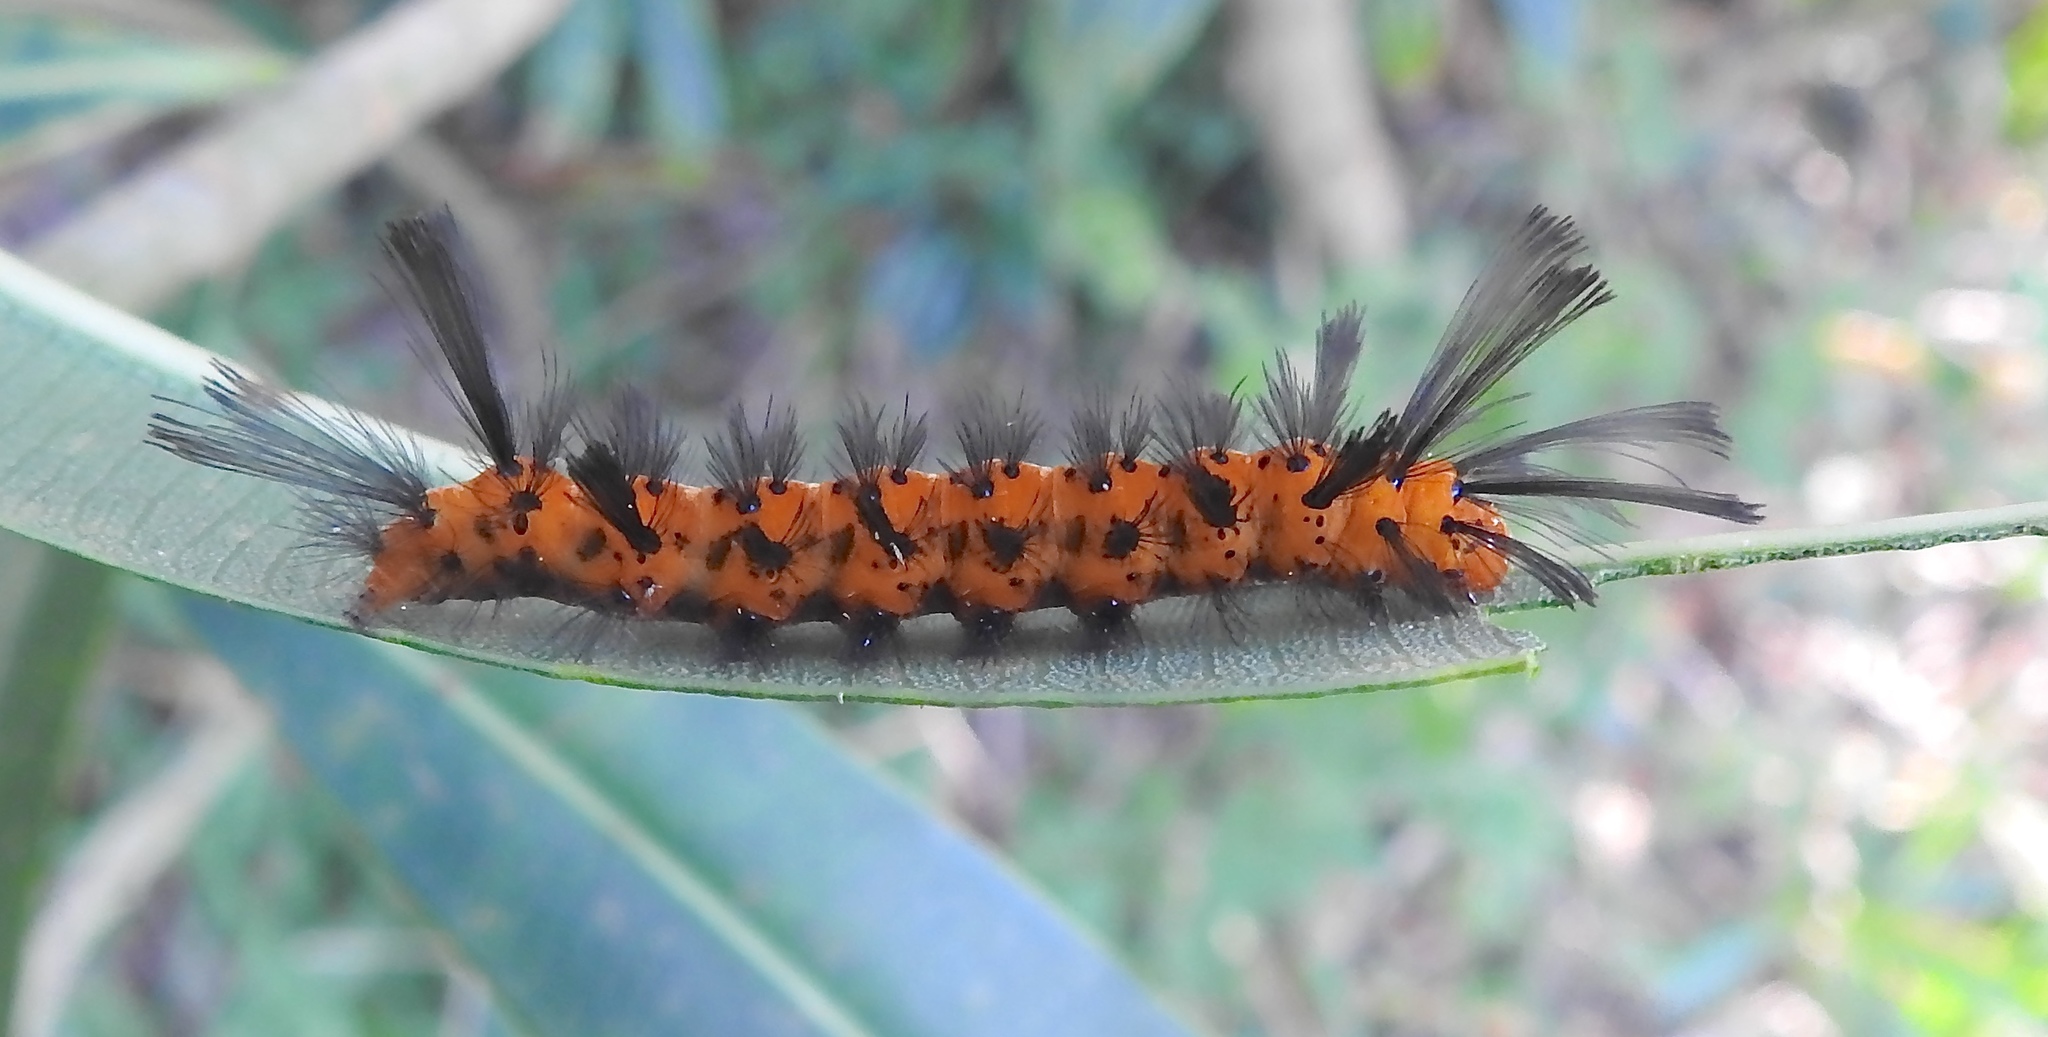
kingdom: Animalia
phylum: Arthropoda
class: Insecta
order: Lepidoptera
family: Erebidae
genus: Syntomeida
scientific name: Syntomeida epilais
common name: Polka-dot wasp moth
